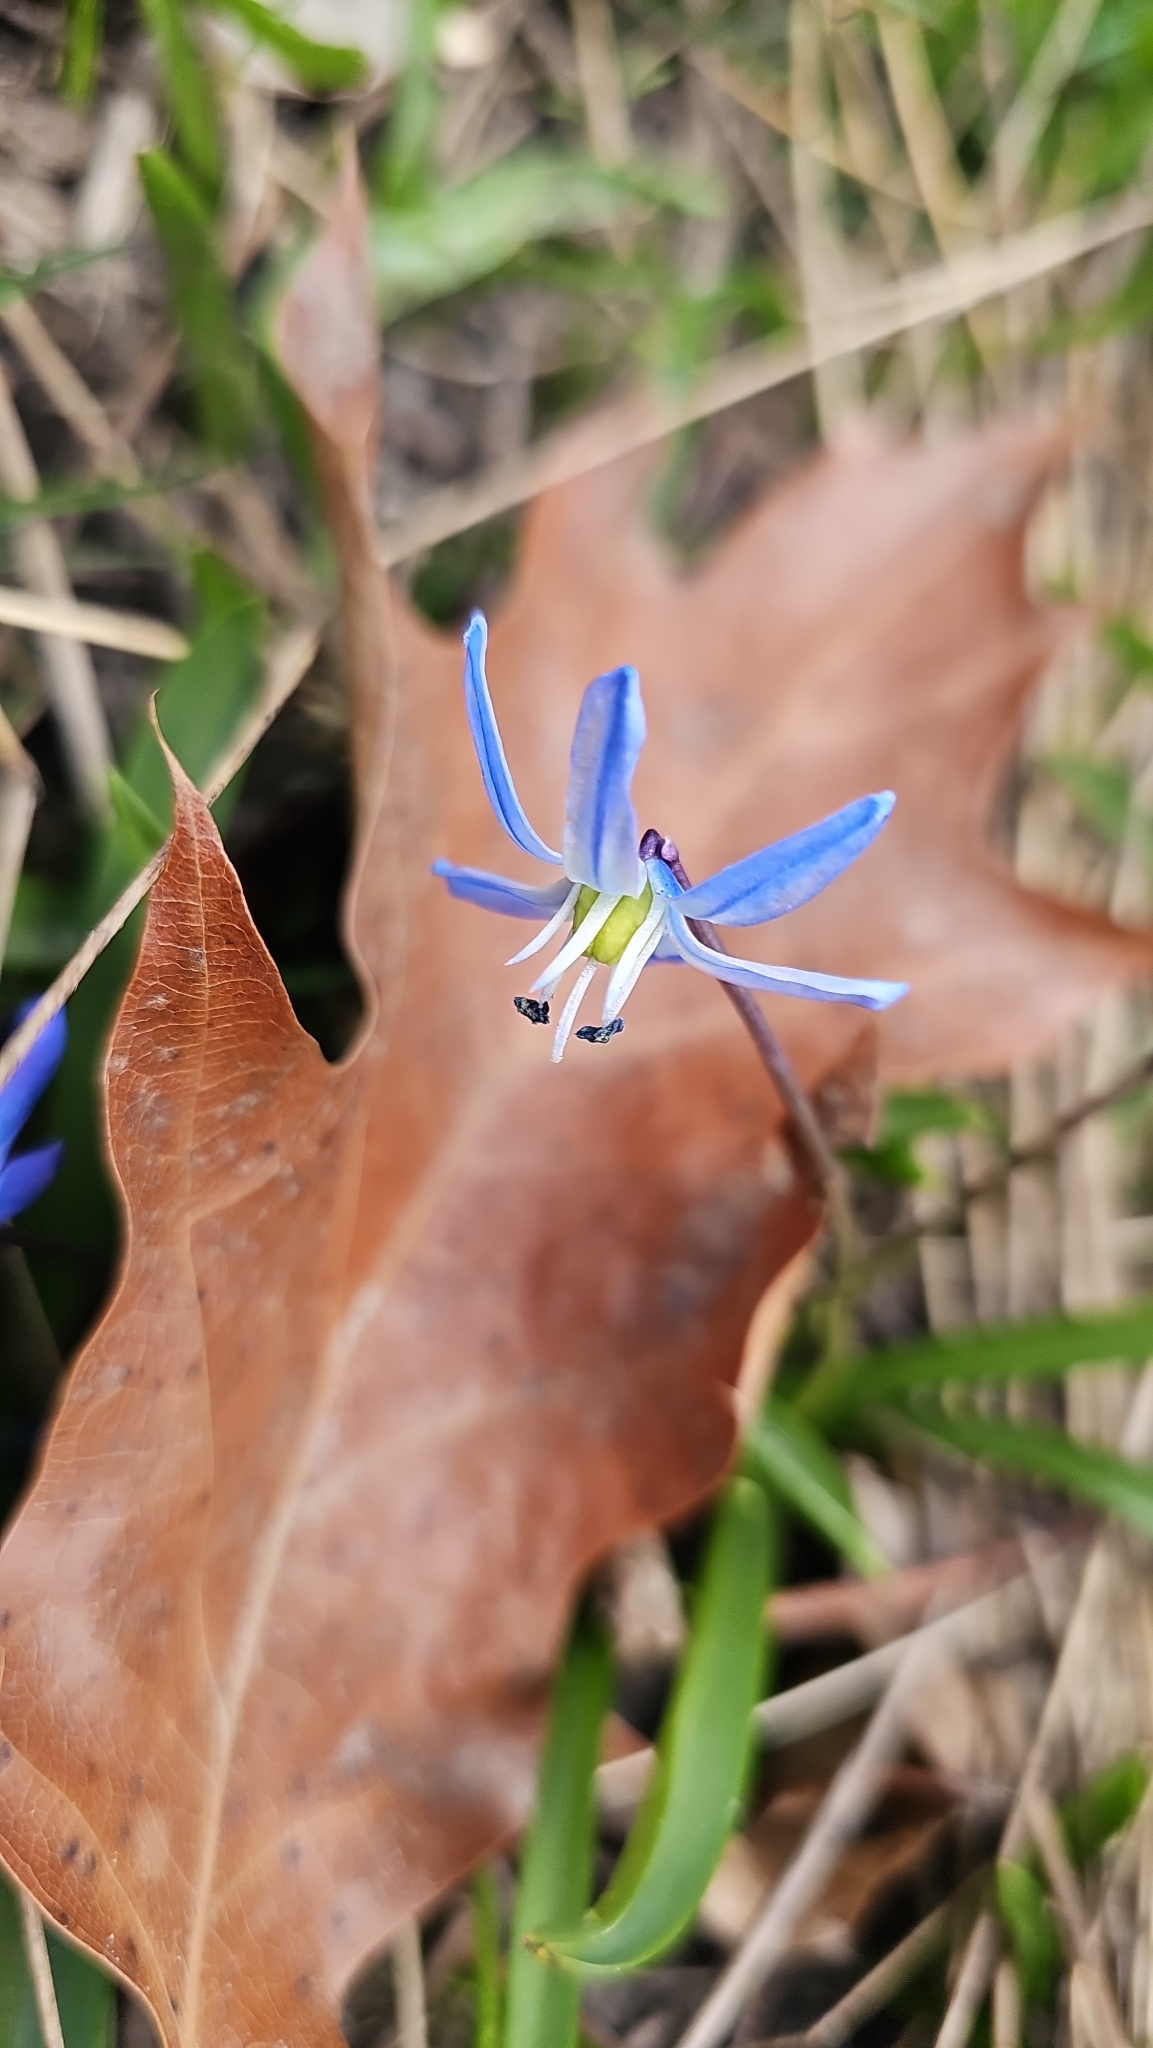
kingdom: Plantae
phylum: Tracheophyta
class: Liliopsida
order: Asparagales
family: Asparagaceae
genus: Scilla
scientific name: Scilla siberica
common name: Siberian squill
